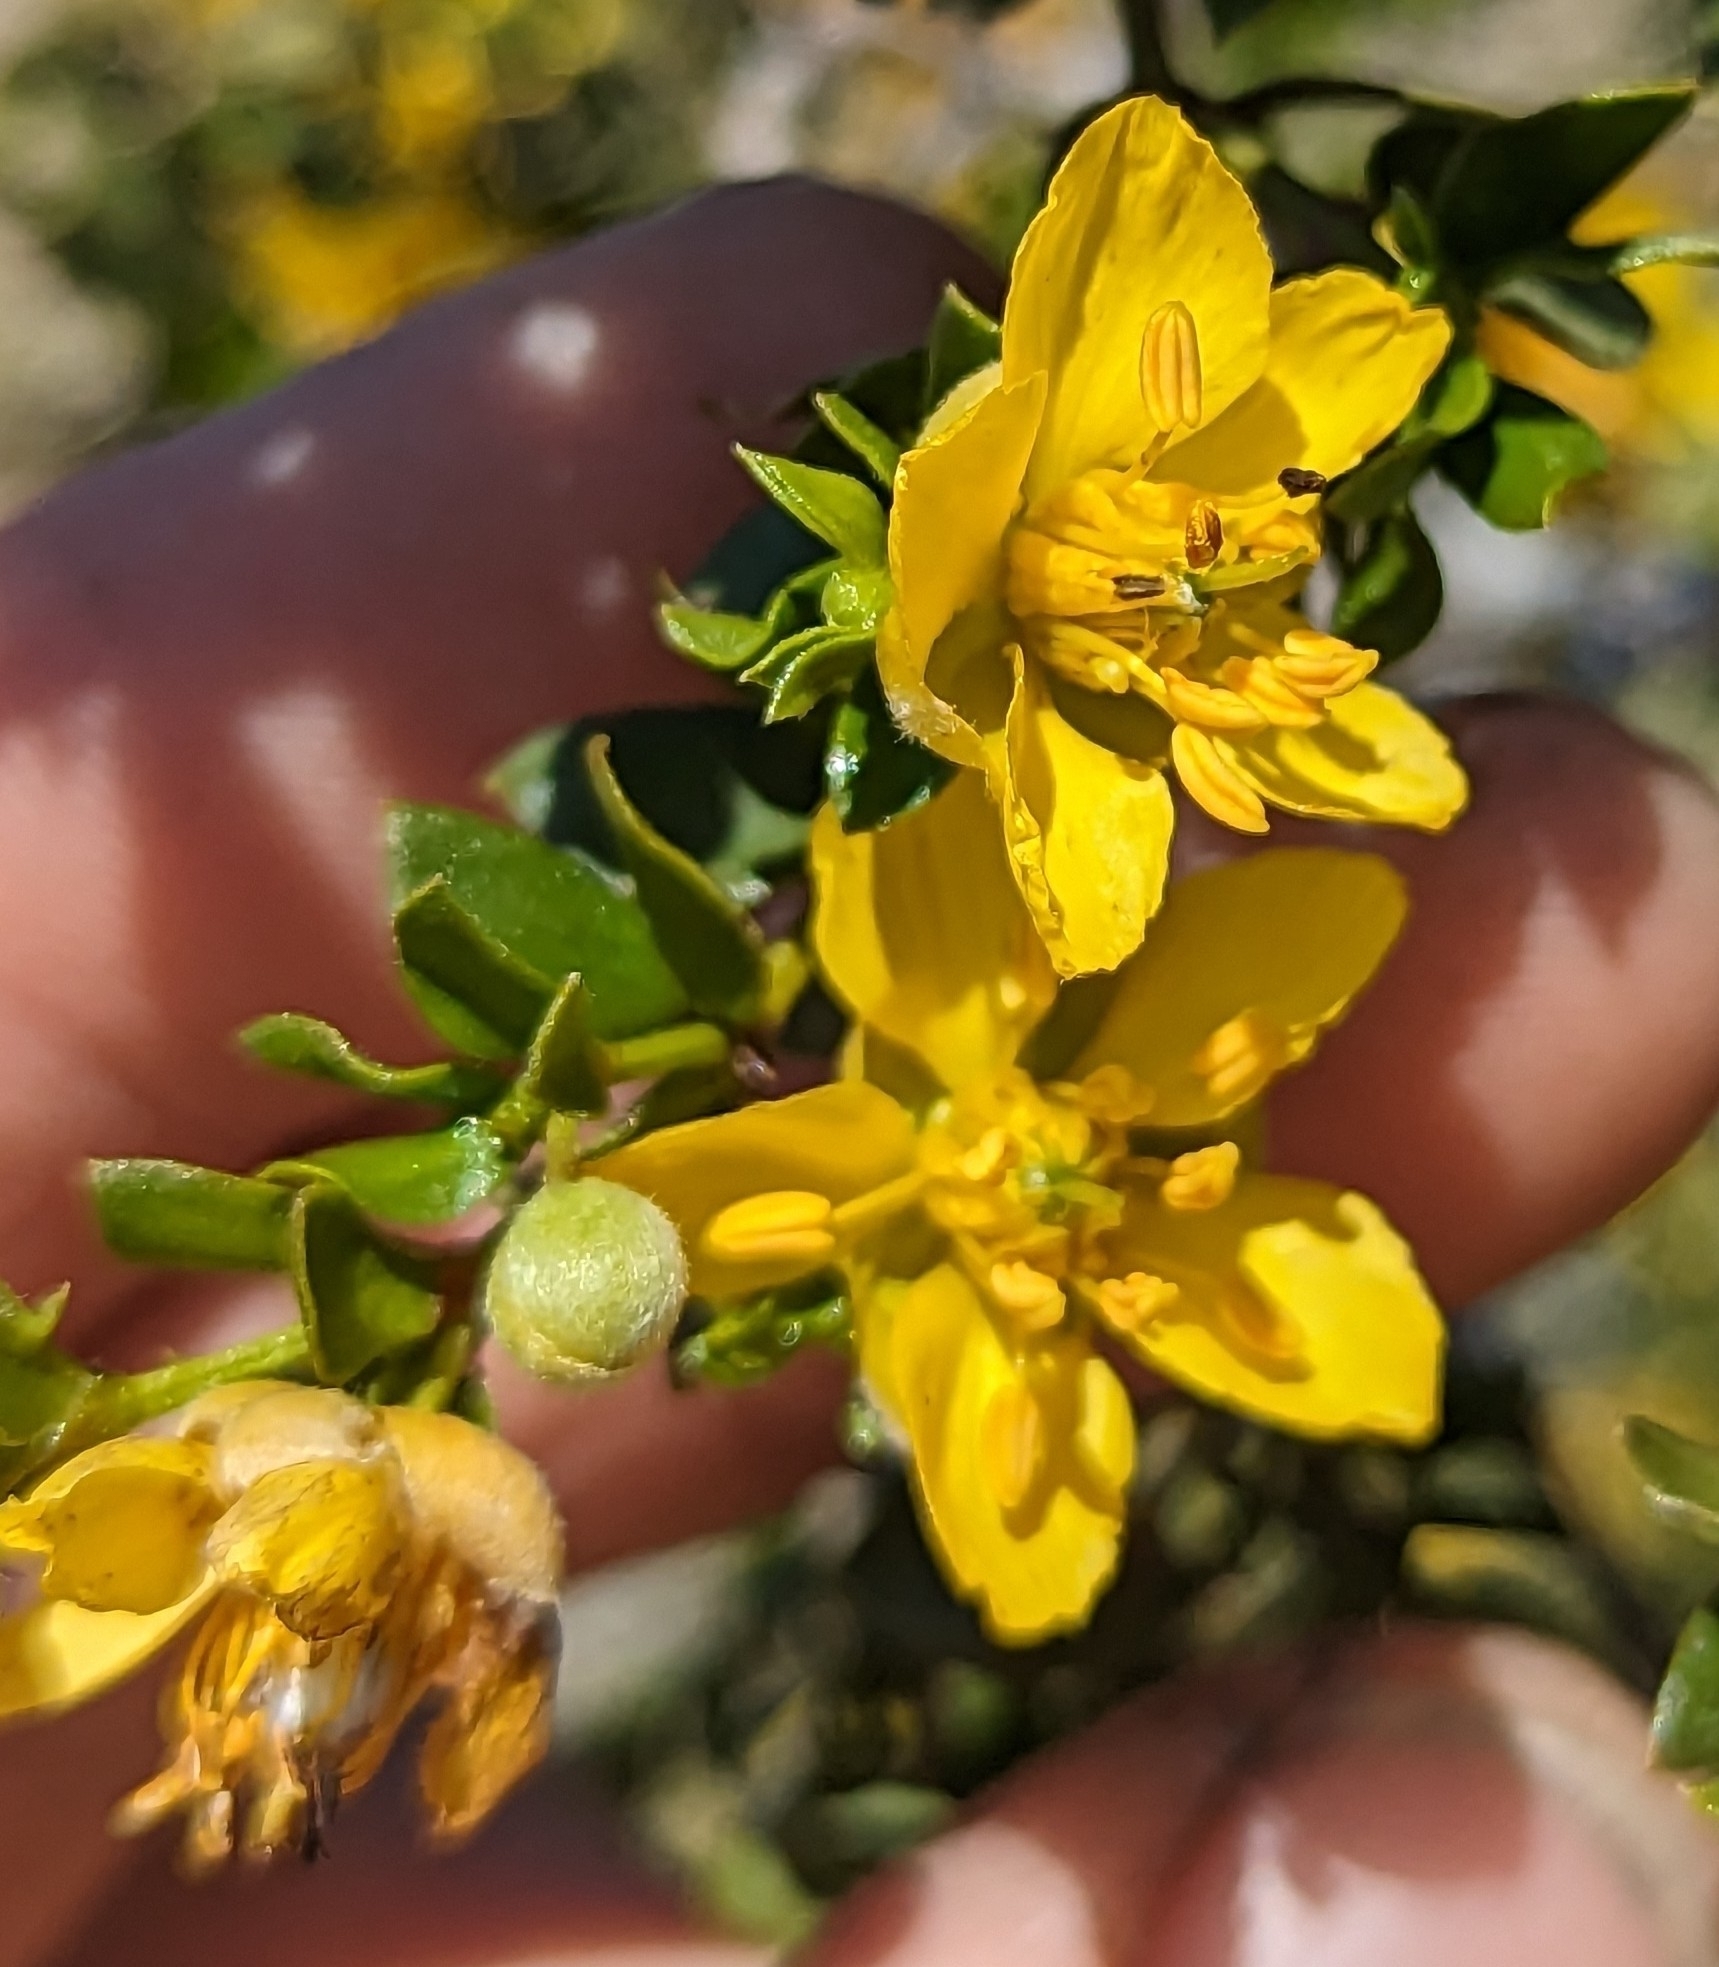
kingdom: Plantae
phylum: Tracheophyta
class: Magnoliopsida
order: Zygophyllales
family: Zygophyllaceae
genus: Larrea
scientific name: Larrea tridentata
